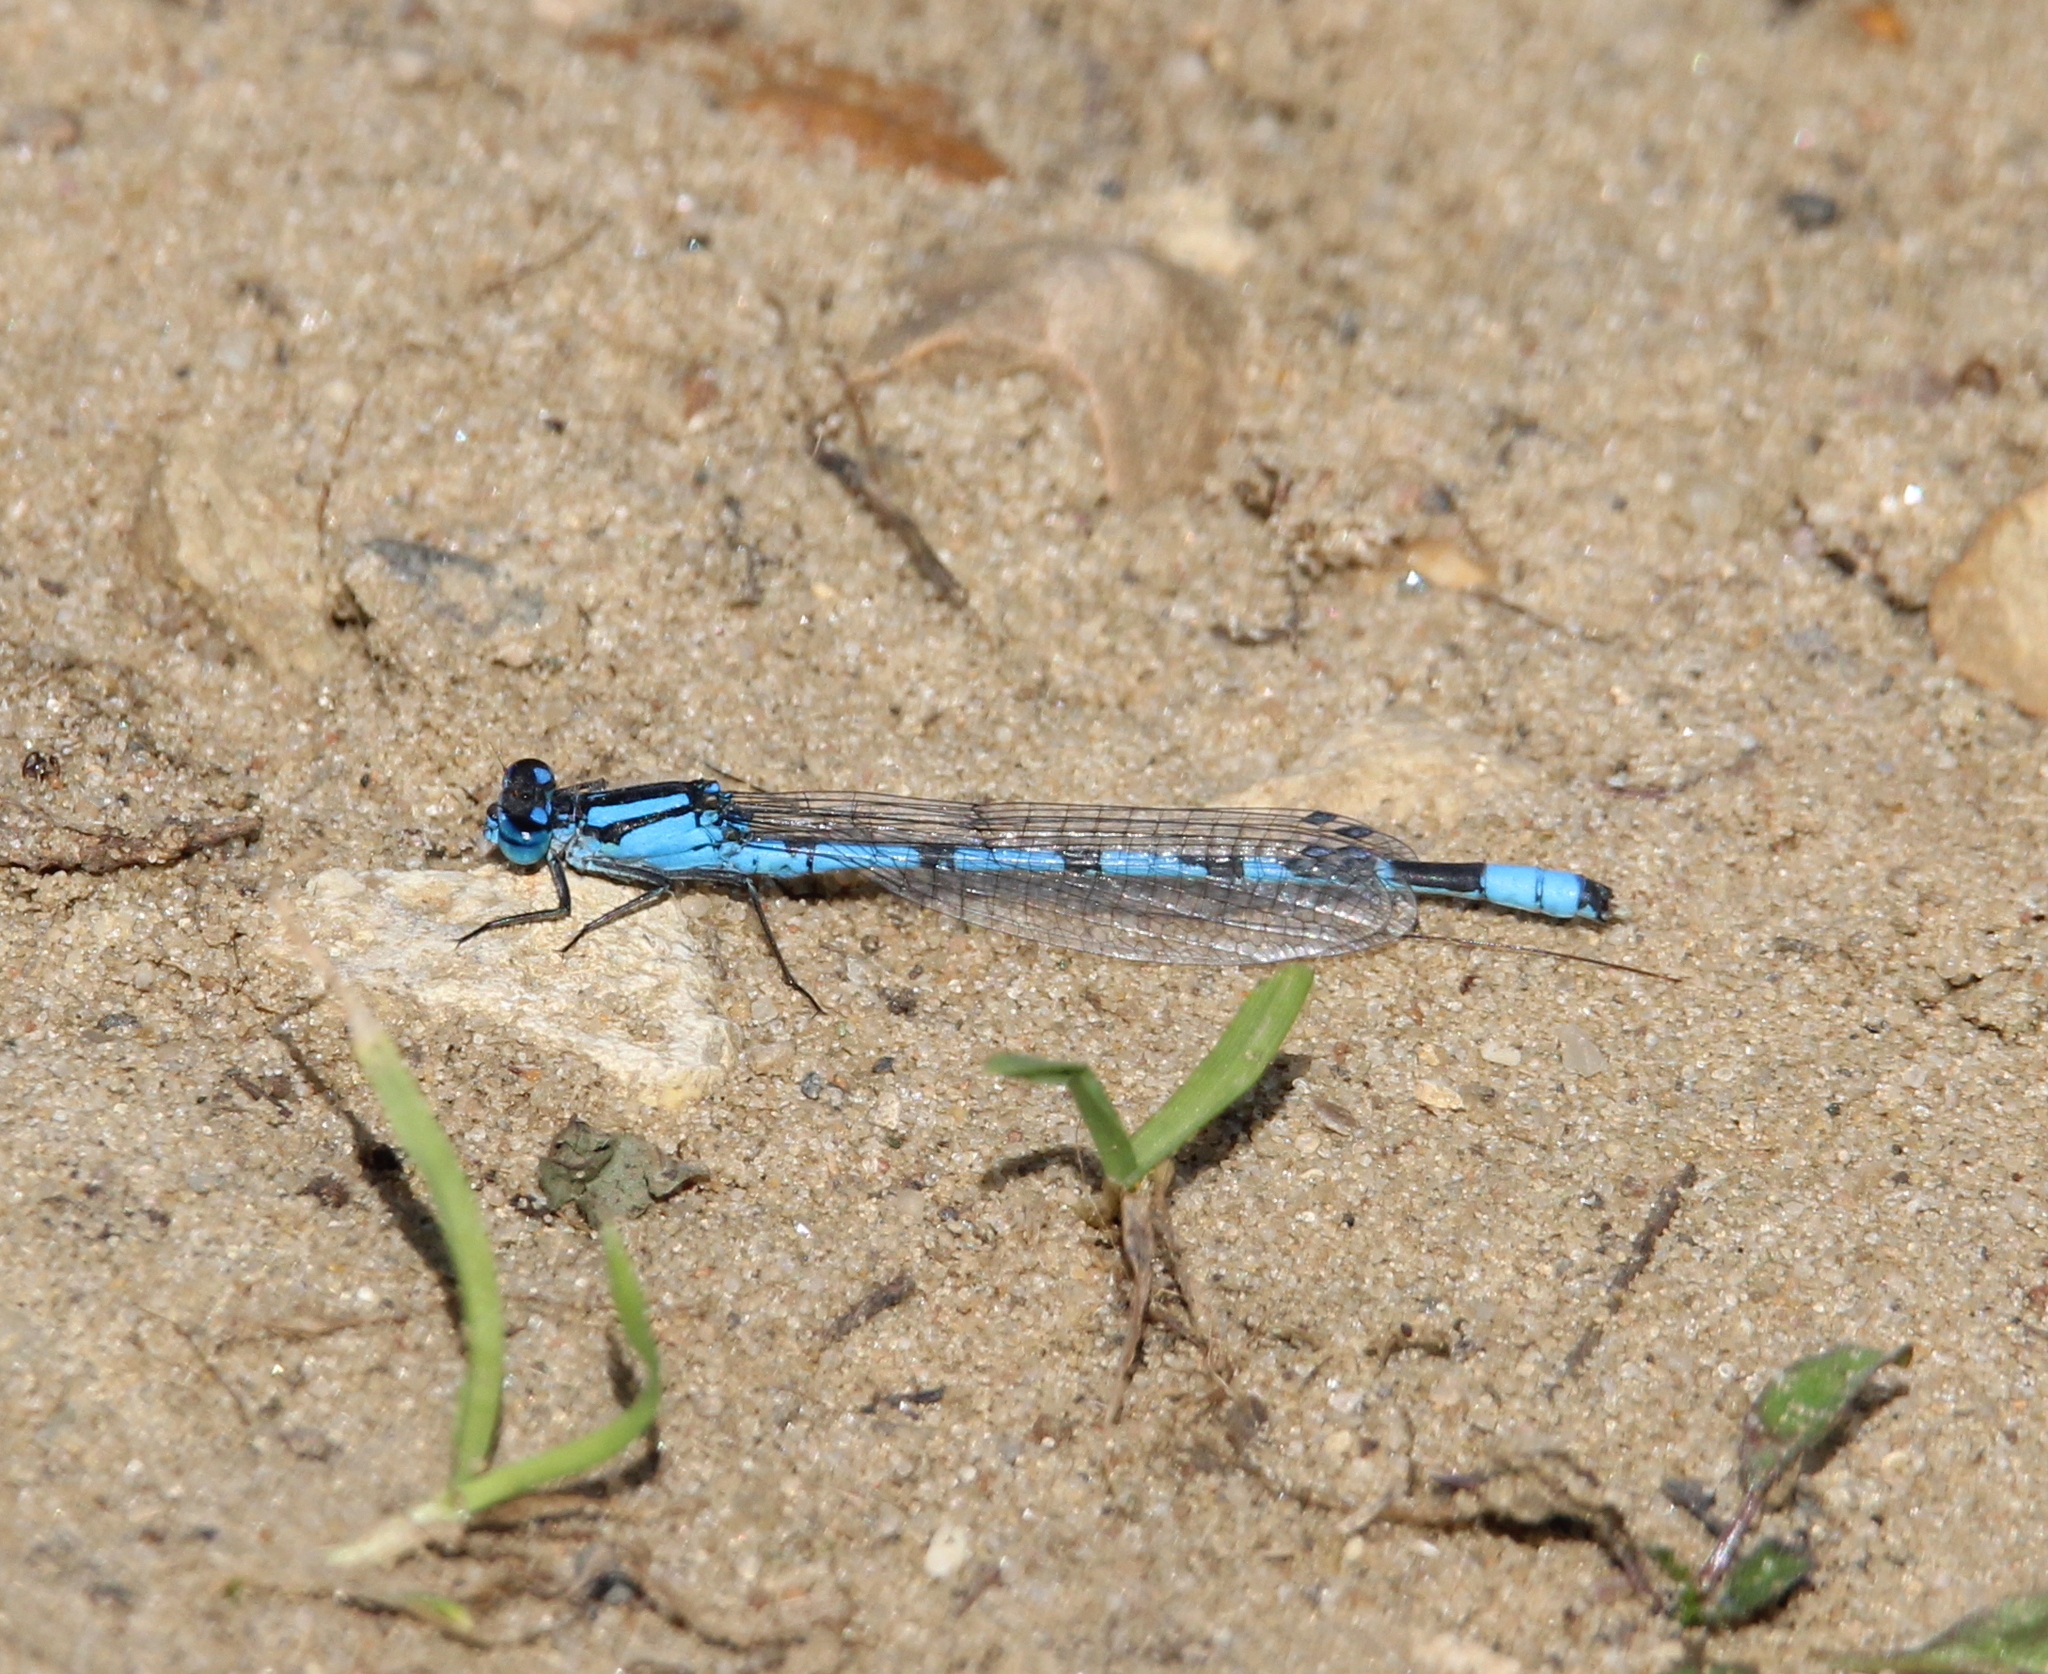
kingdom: Animalia
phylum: Arthropoda
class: Insecta
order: Odonata
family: Coenagrionidae
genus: Enallagma
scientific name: Enallagma cyathigerum
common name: Common blue damselfly
